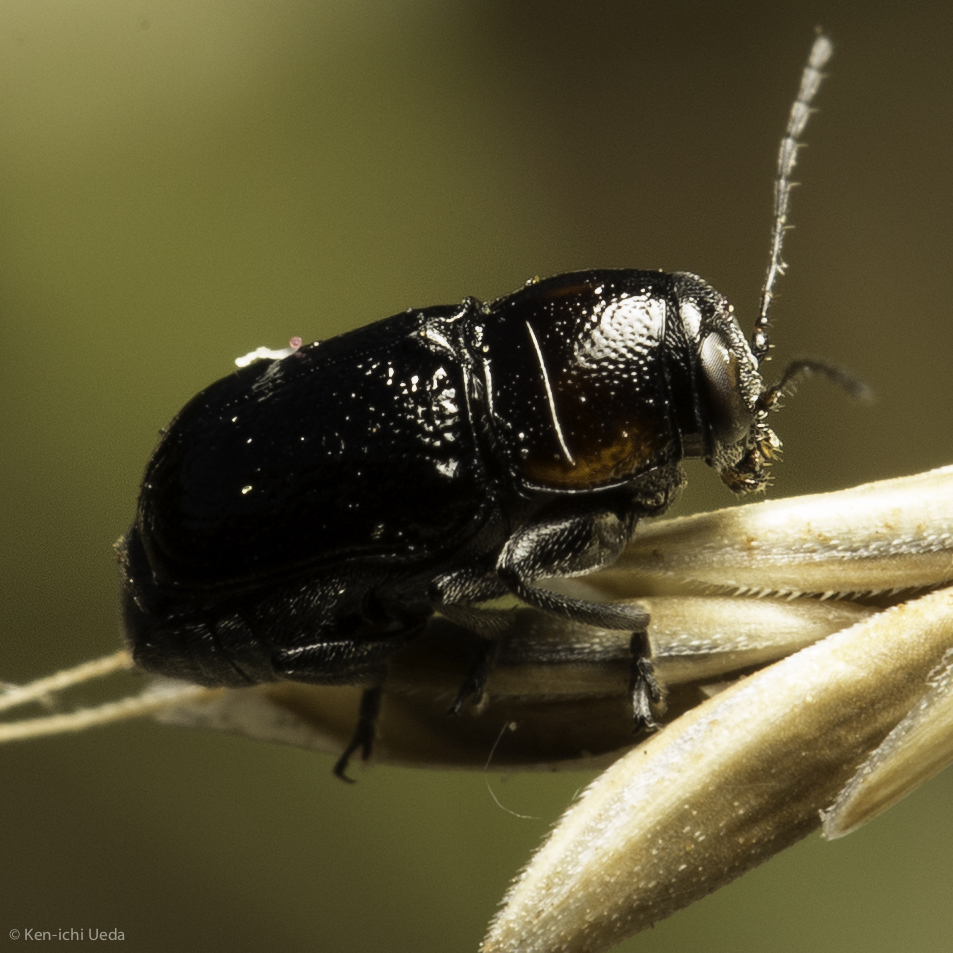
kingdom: Animalia
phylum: Arthropoda
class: Insecta
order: Coleoptera
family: Chrysomelidae
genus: Pachybrachis
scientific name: Pachybrachis hybridus
